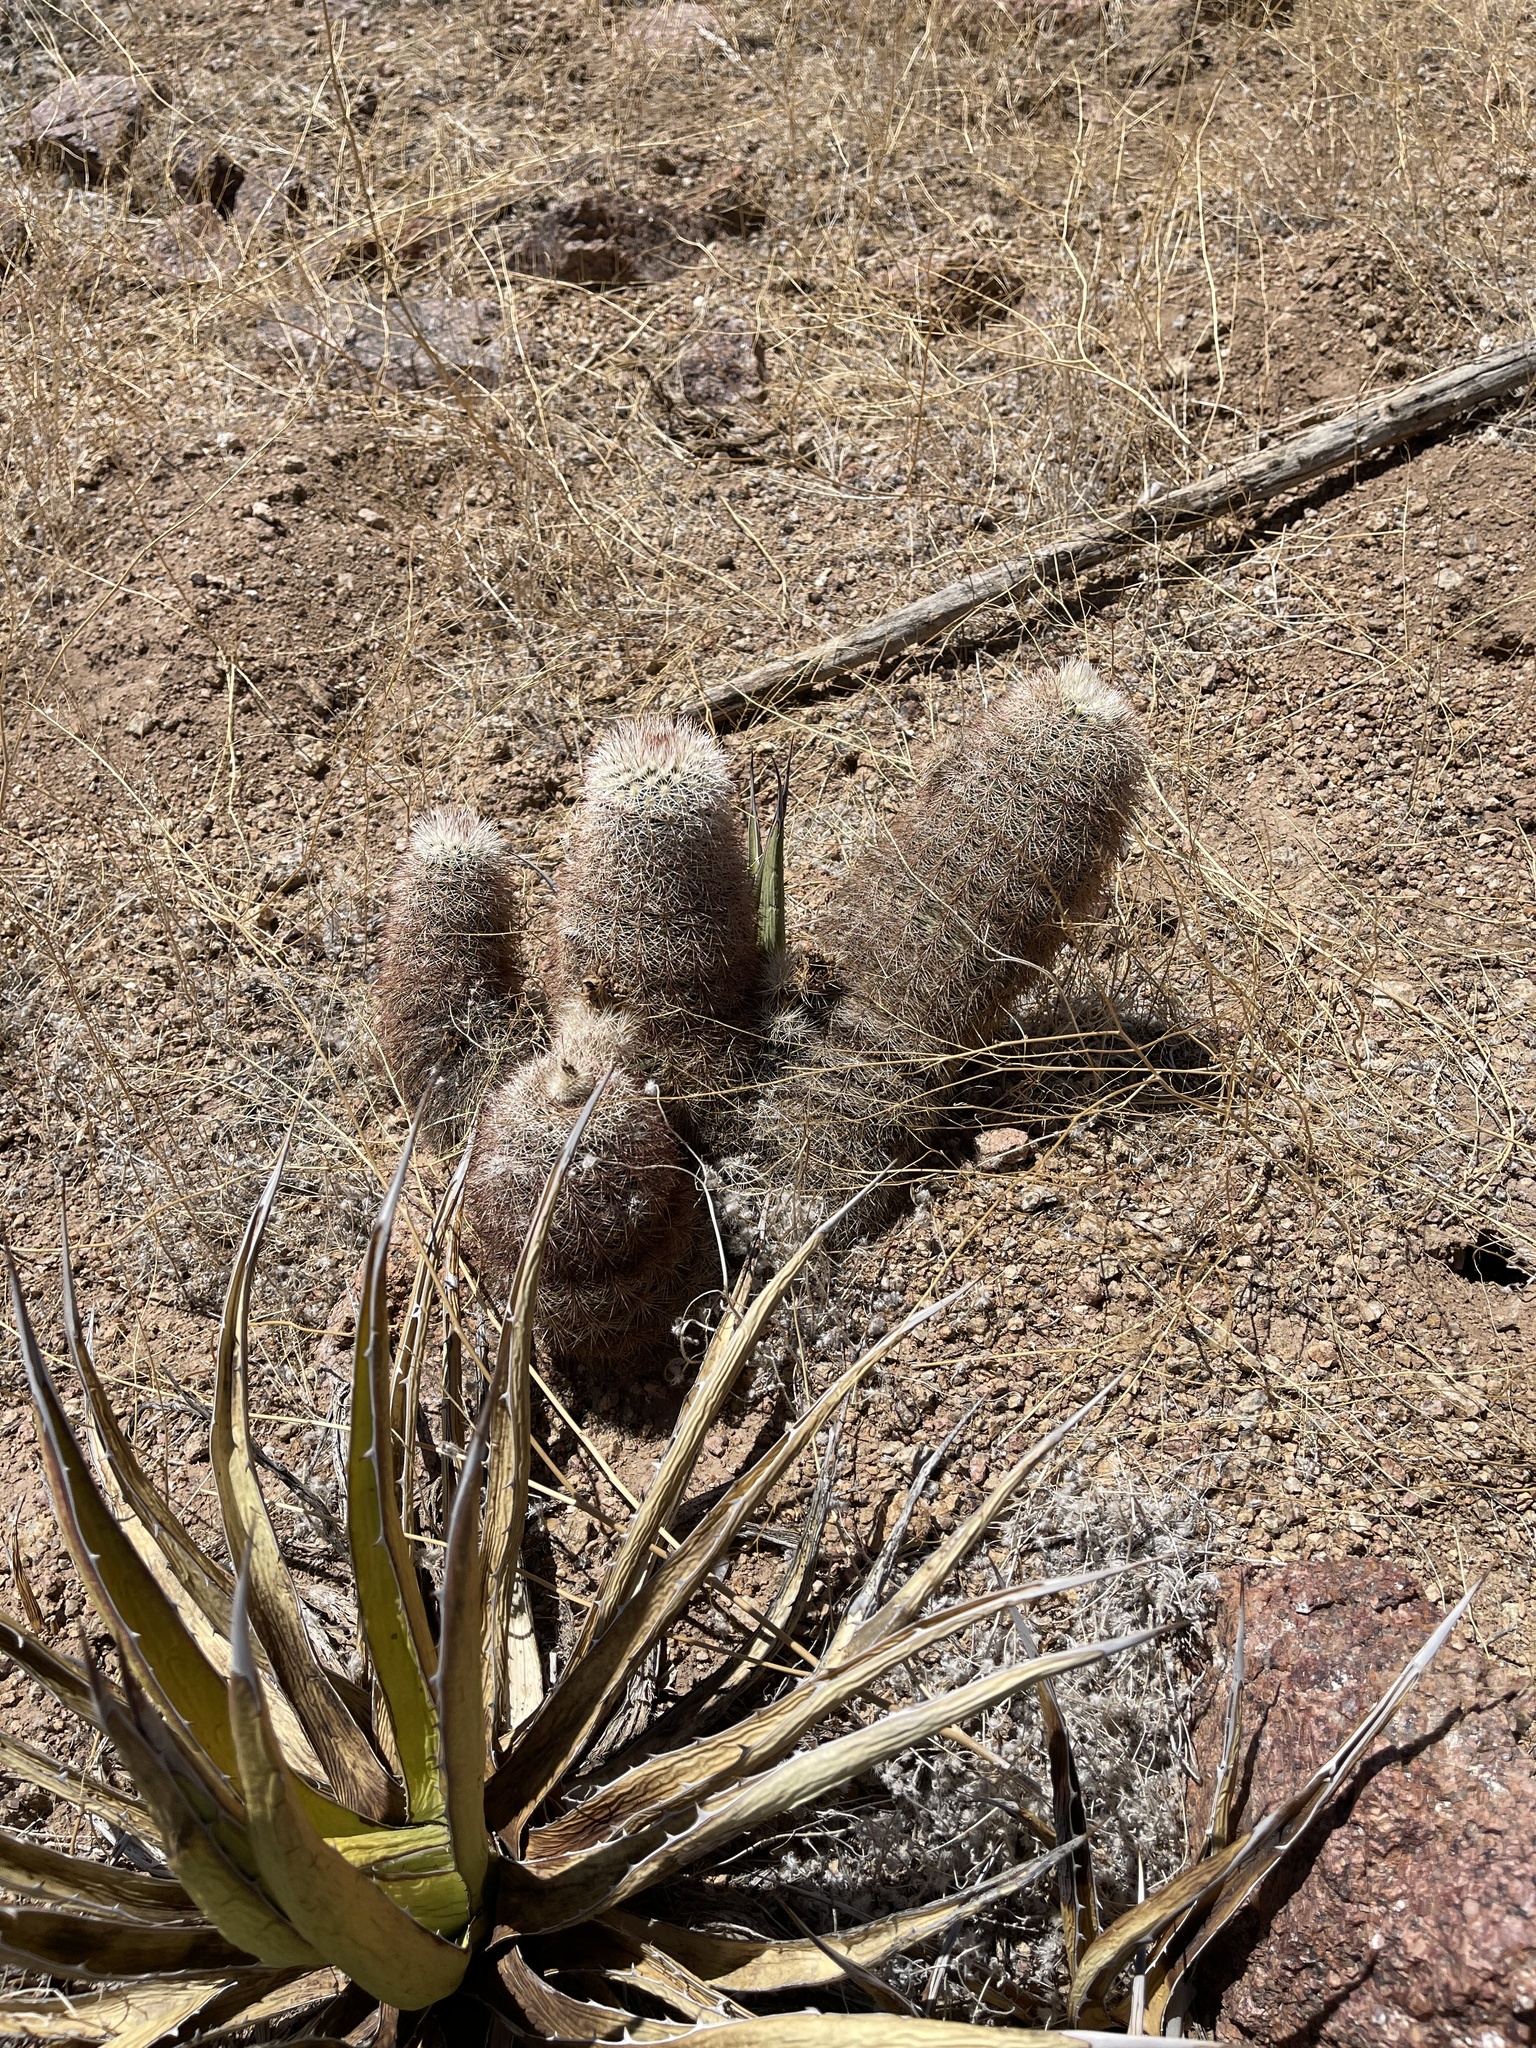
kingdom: Plantae
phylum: Tracheophyta
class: Magnoliopsida
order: Caryophyllales
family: Cactaceae
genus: Echinocereus
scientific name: Echinocereus dasyacanthus
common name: Spiny hedgehog cactus
